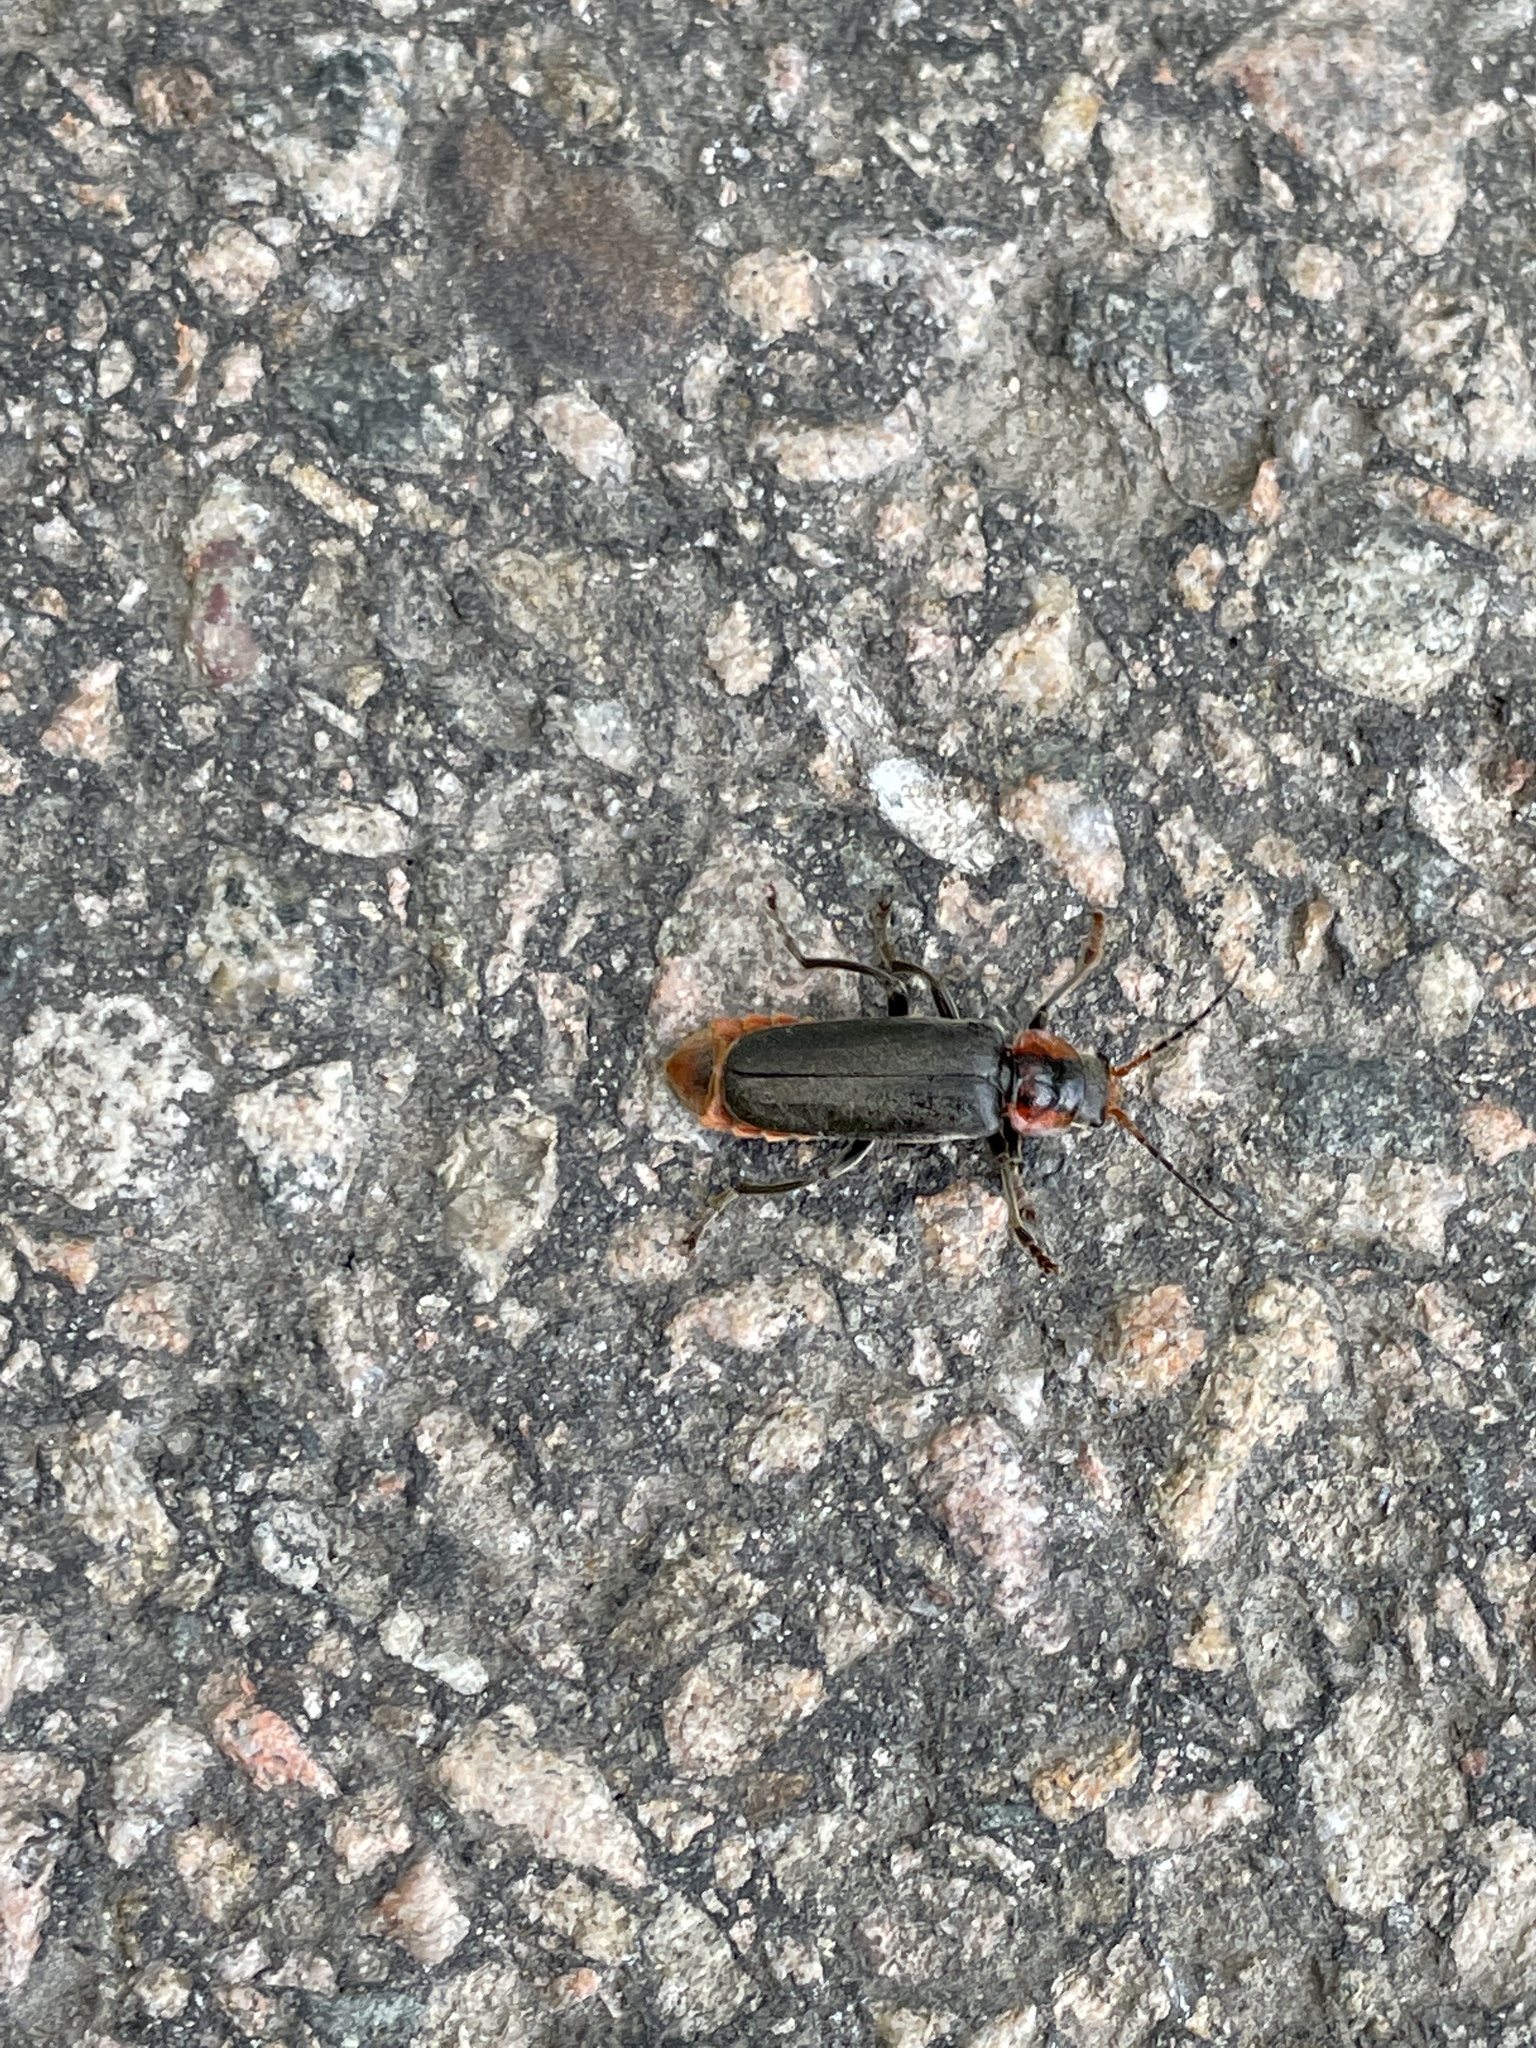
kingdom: Animalia
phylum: Arthropoda
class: Insecta
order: Coleoptera
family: Cantharidae
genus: Cantharis
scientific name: Cantharis fusca
